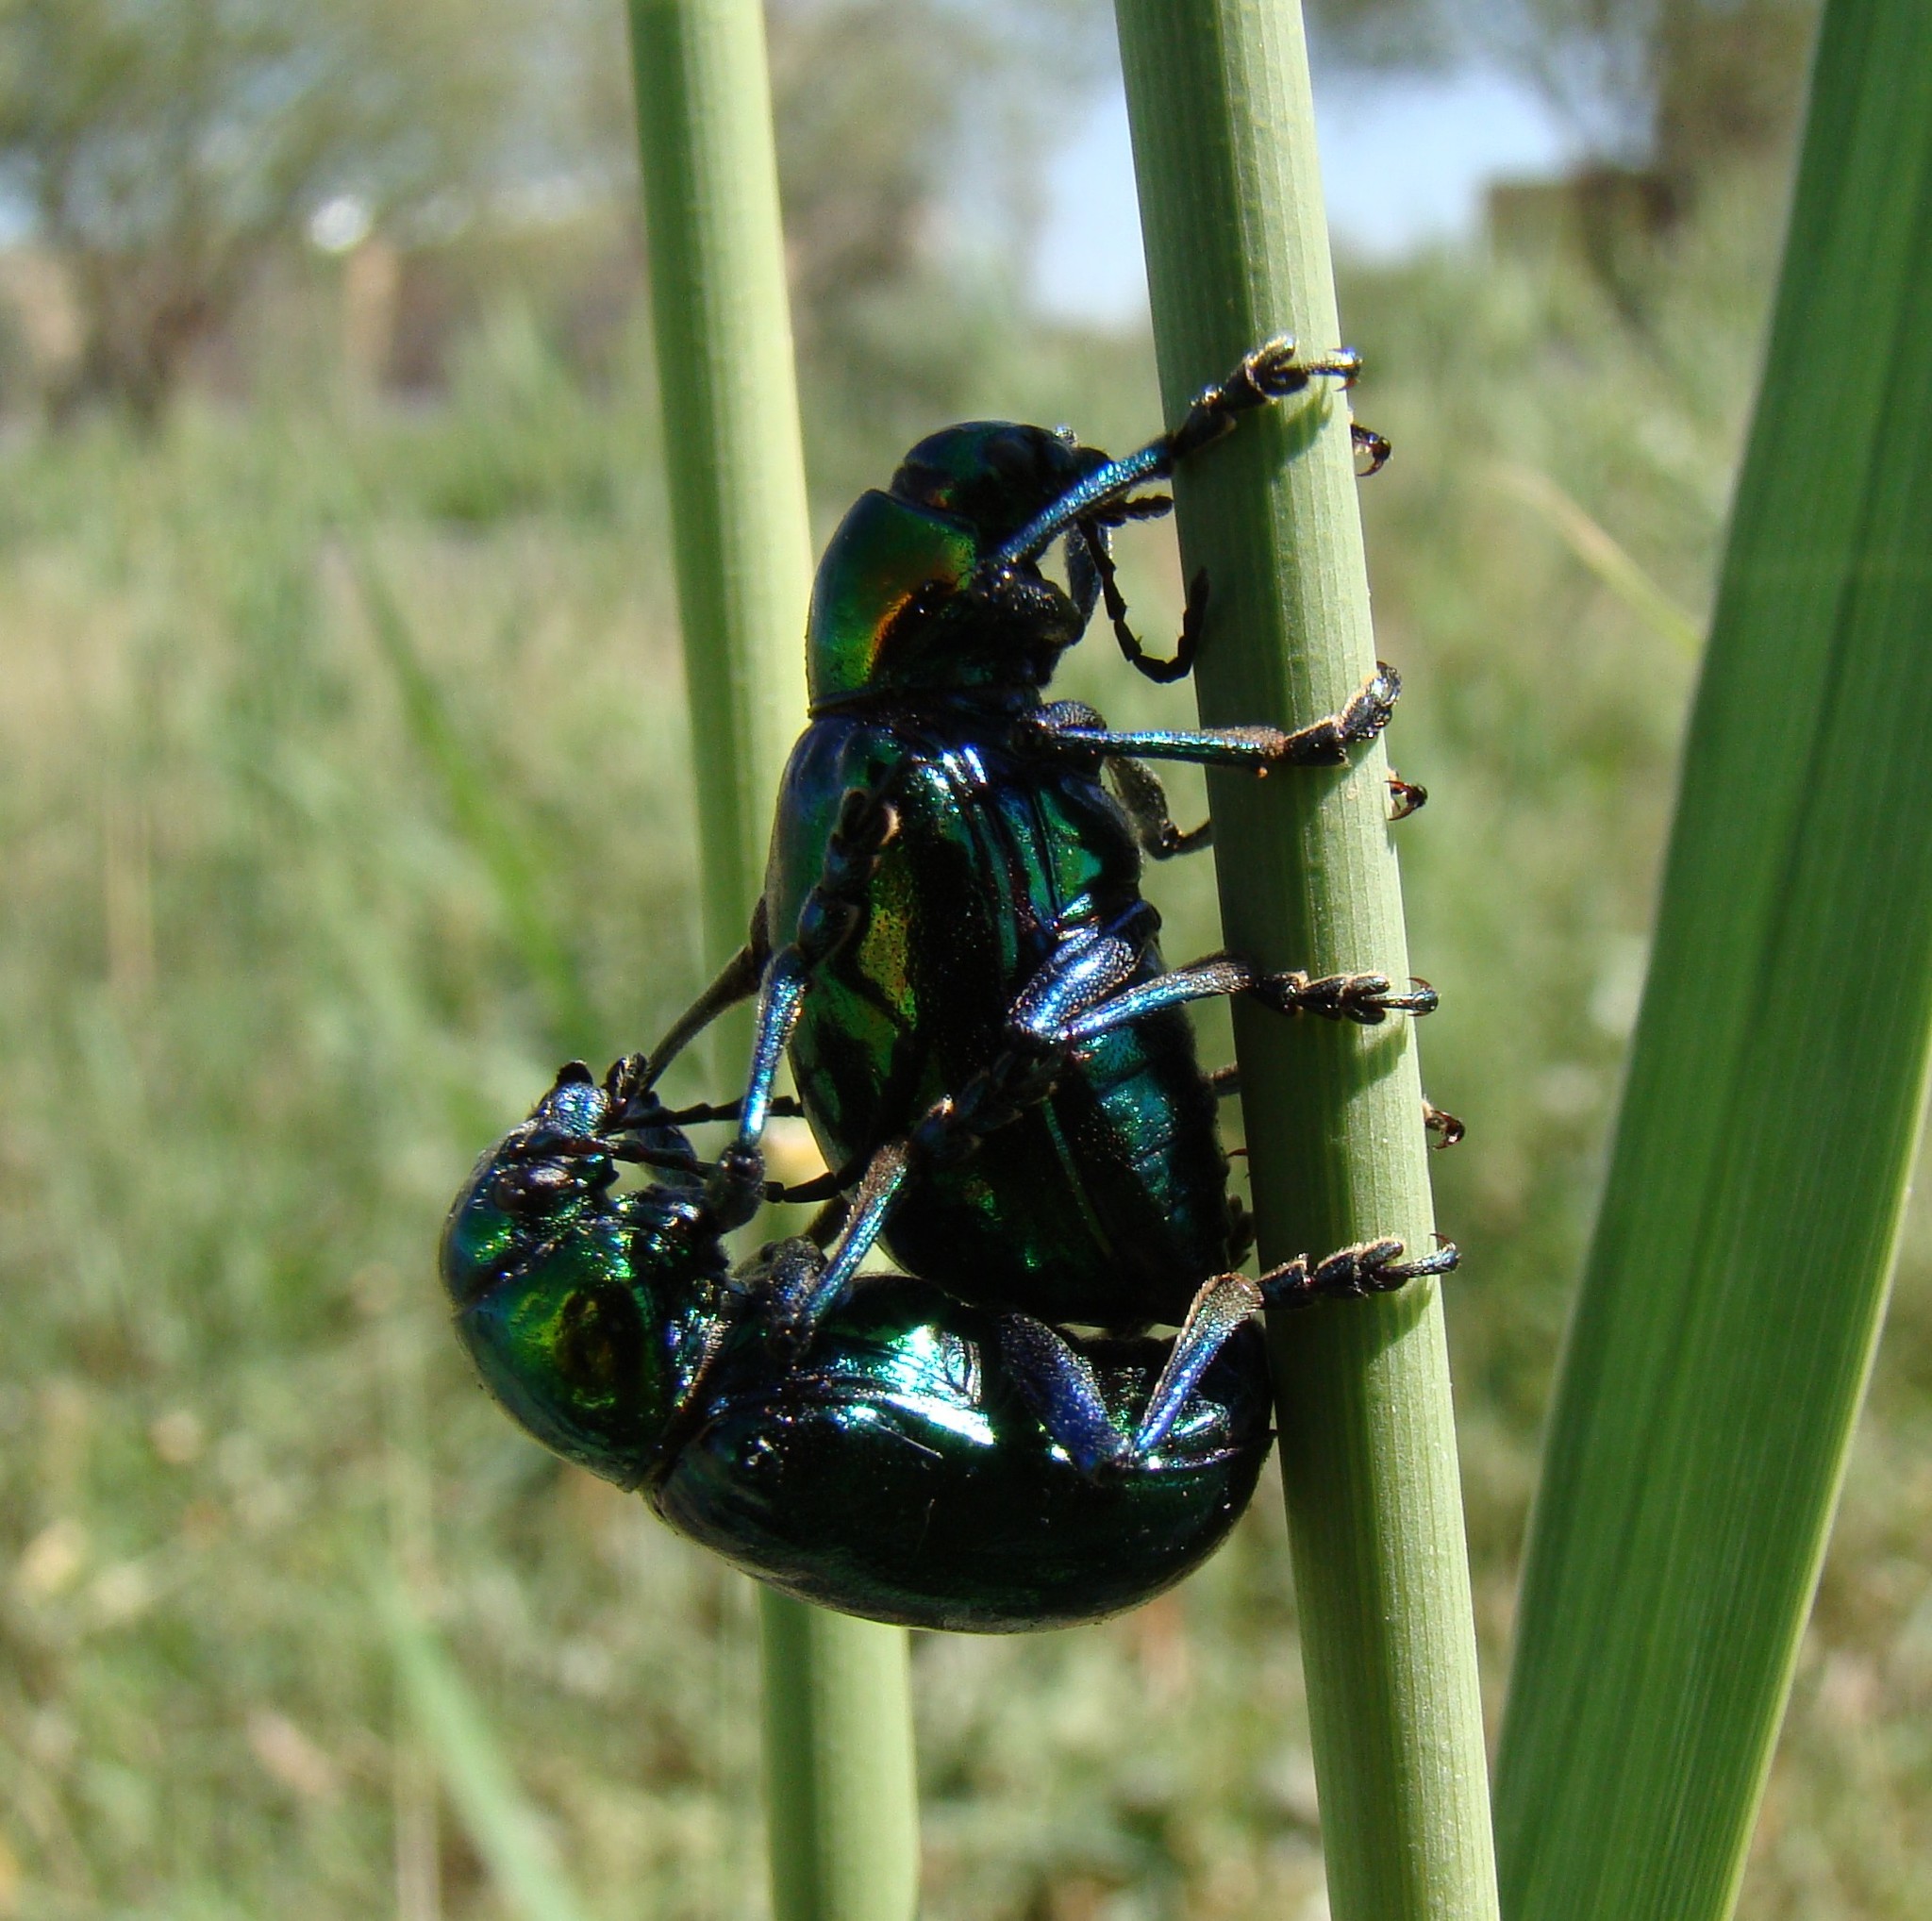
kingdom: Animalia
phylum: Arthropoda
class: Insecta
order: Coleoptera
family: Chrysomelidae
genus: Chrysochares
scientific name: Chrysochares
